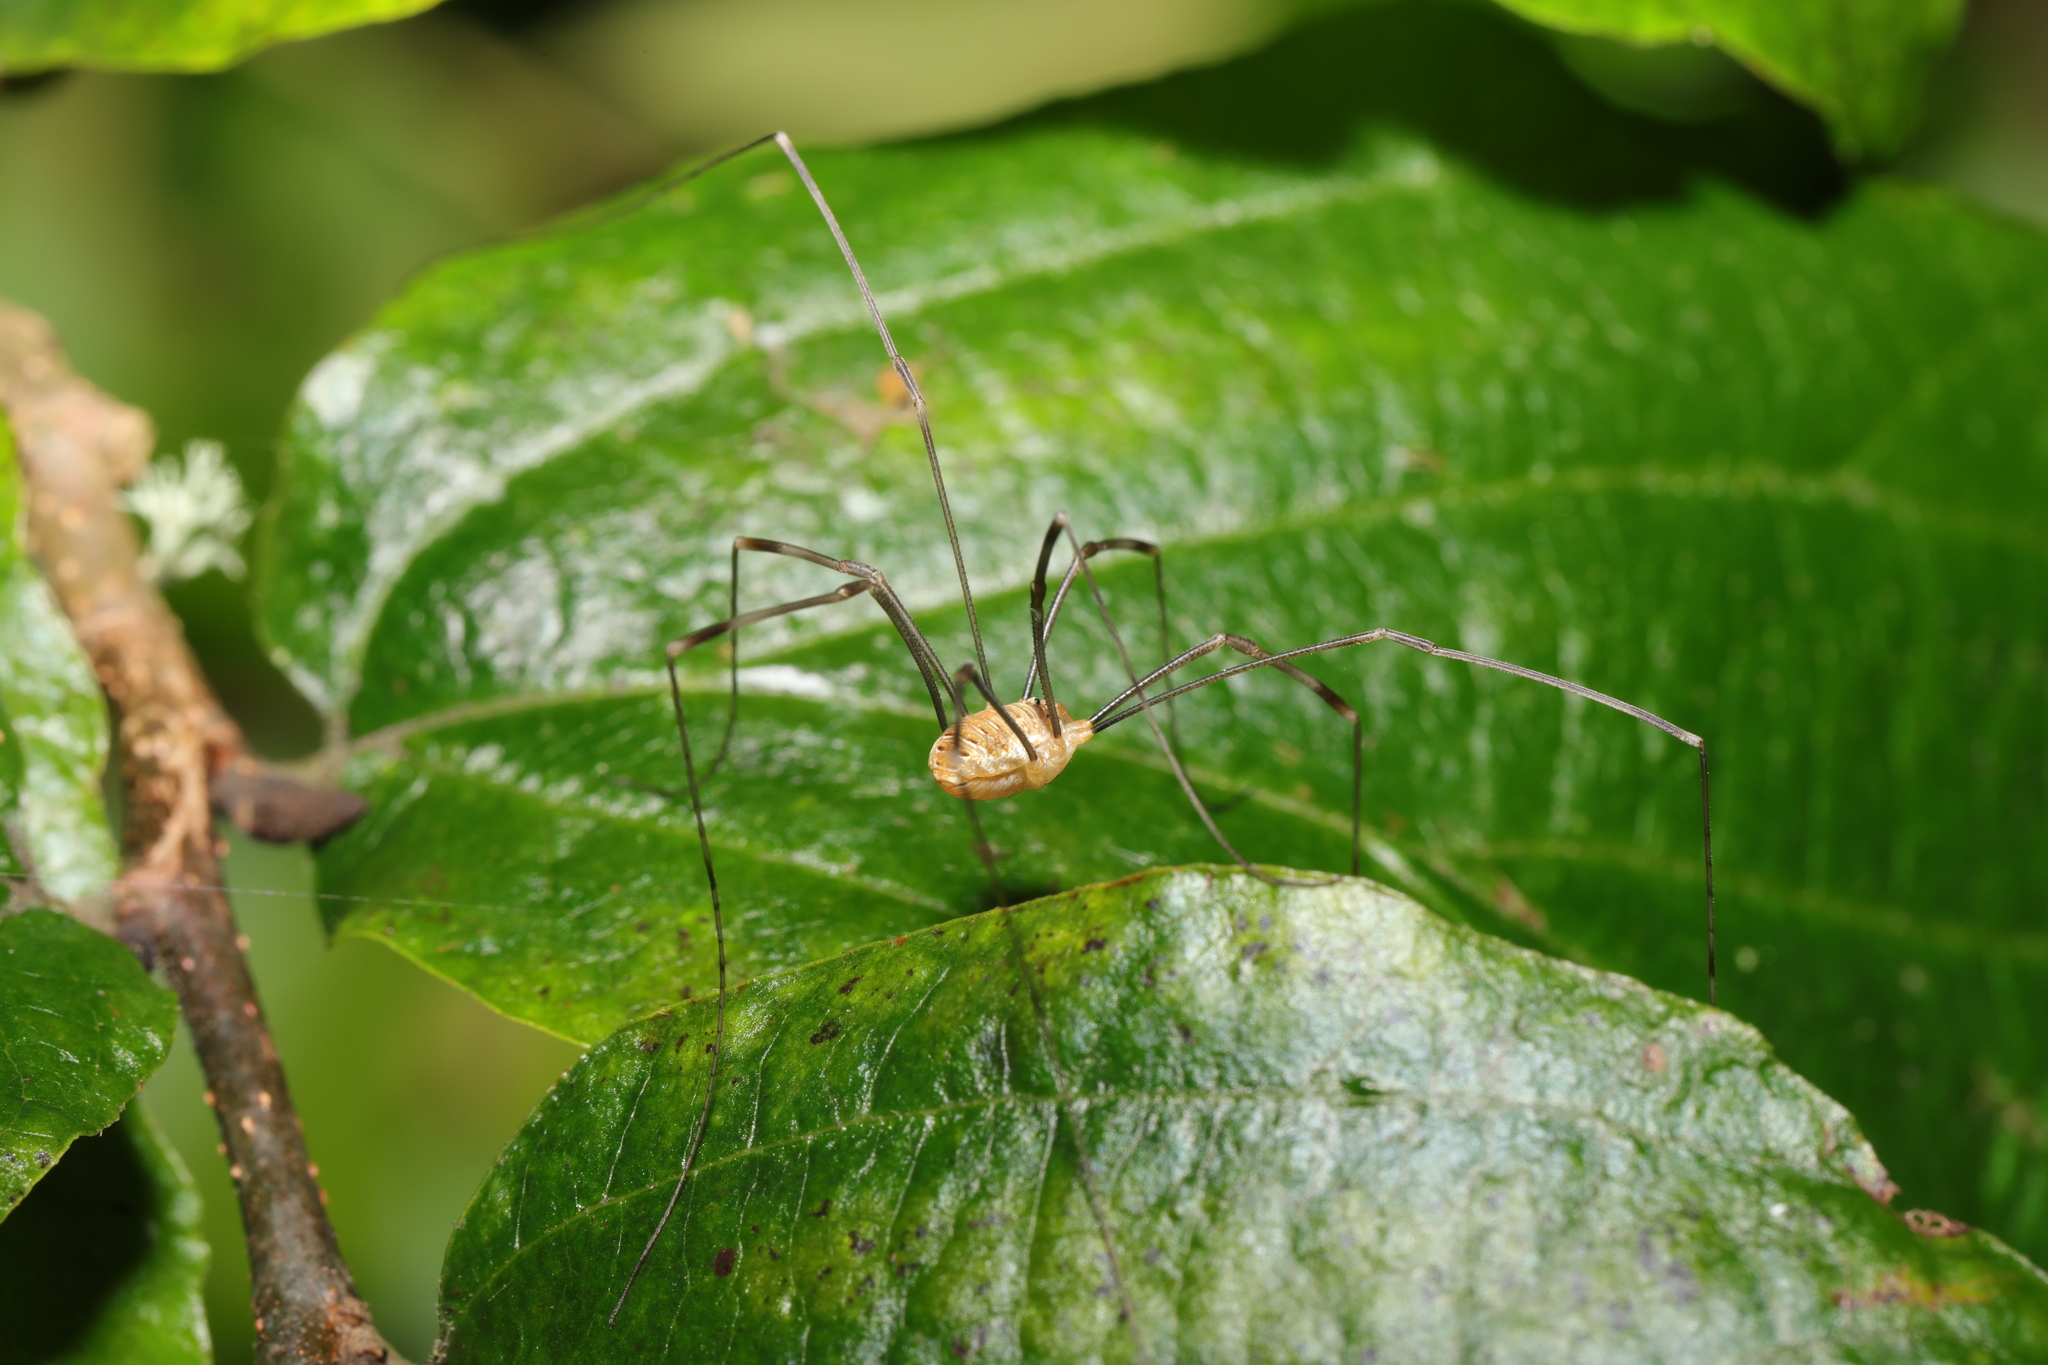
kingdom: Animalia
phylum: Arthropoda
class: Arachnida
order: Opiliones
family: Phalangiidae
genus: Opilio
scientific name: Opilio canestrinii
